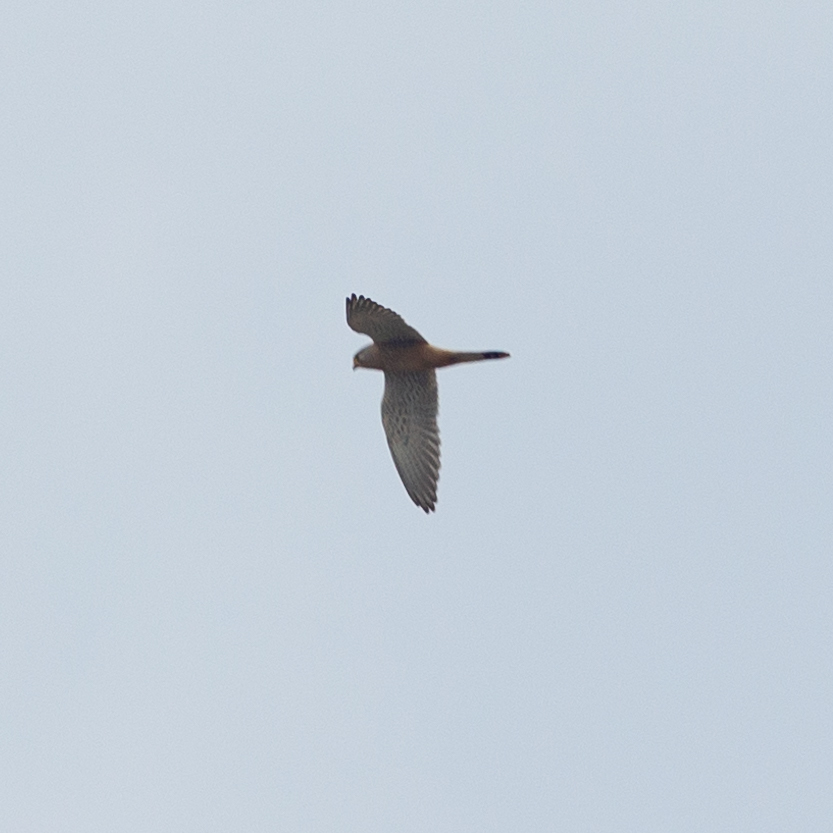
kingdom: Animalia
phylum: Chordata
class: Aves
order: Falconiformes
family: Falconidae
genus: Falco
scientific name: Falco tinnunculus
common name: Common kestrel
